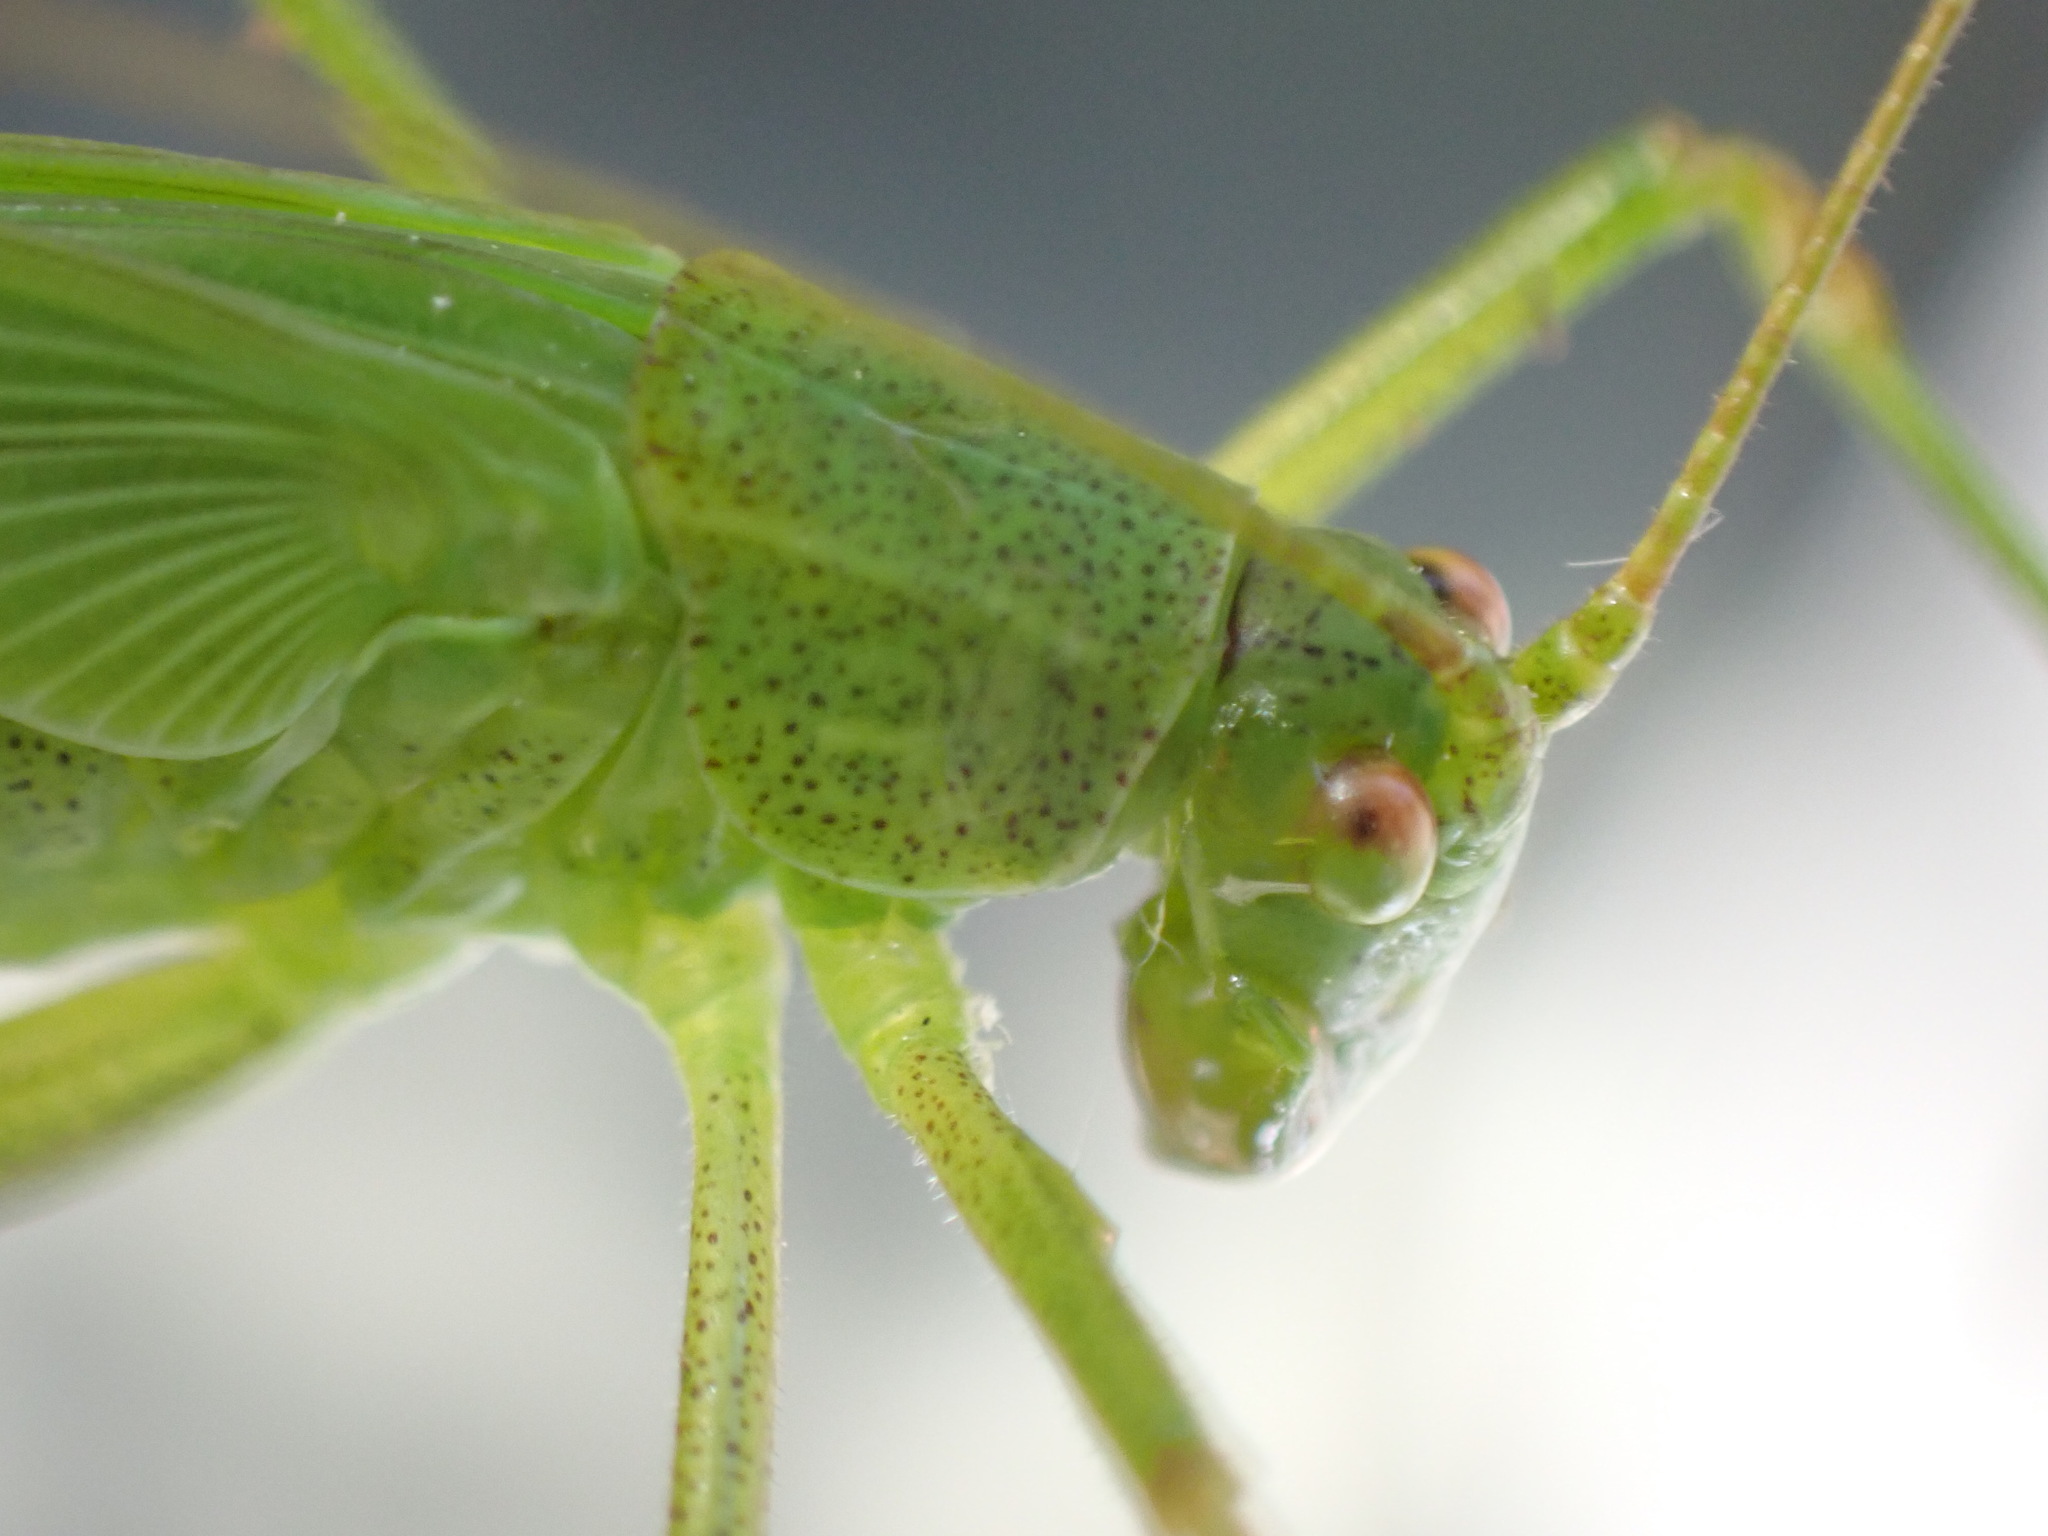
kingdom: Animalia
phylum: Arthropoda
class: Insecta
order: Orthoptera
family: Tettigoniidae
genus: Phaneroptera
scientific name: Phaneroptera falcata
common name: Sickle-bearing bush-cricket
